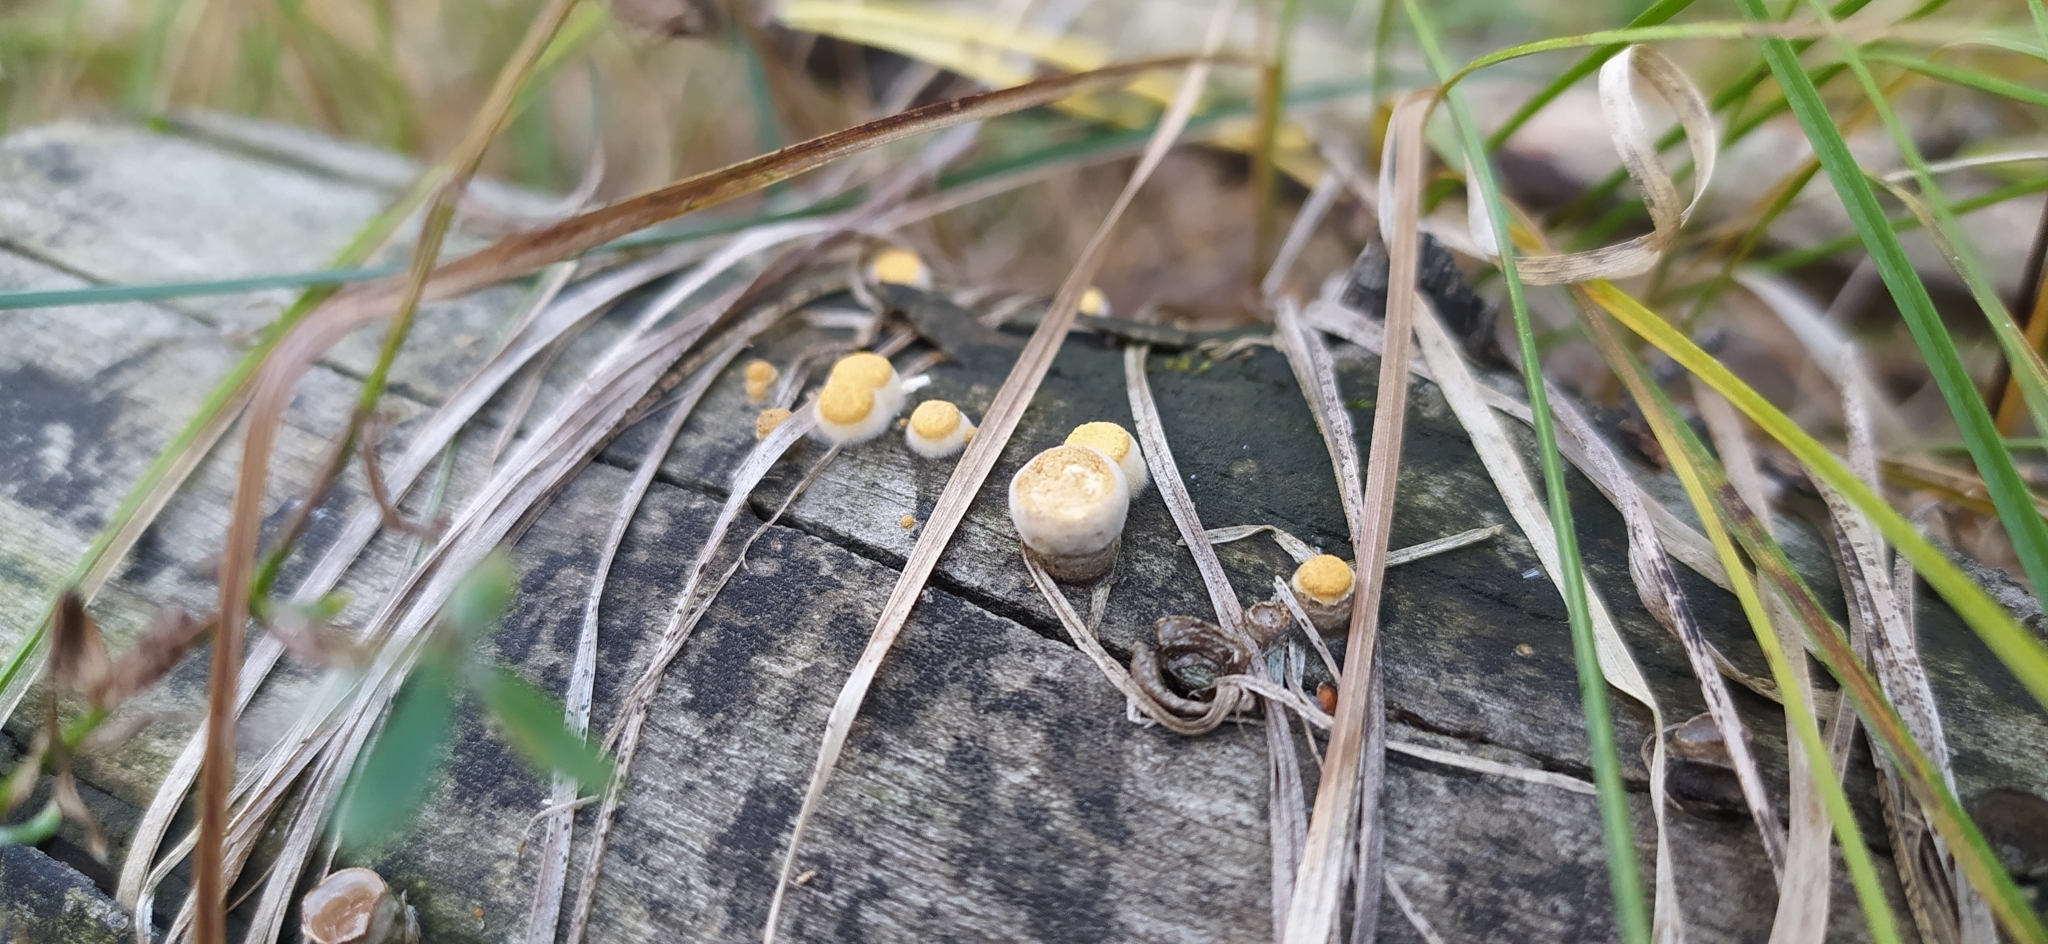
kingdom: Fungi
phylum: Basidiomycota
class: Agaricomycetes
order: Agaricales
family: Nidulariaceae
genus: Crucibulum
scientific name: Crucibulum laeve
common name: Common bird's nest
